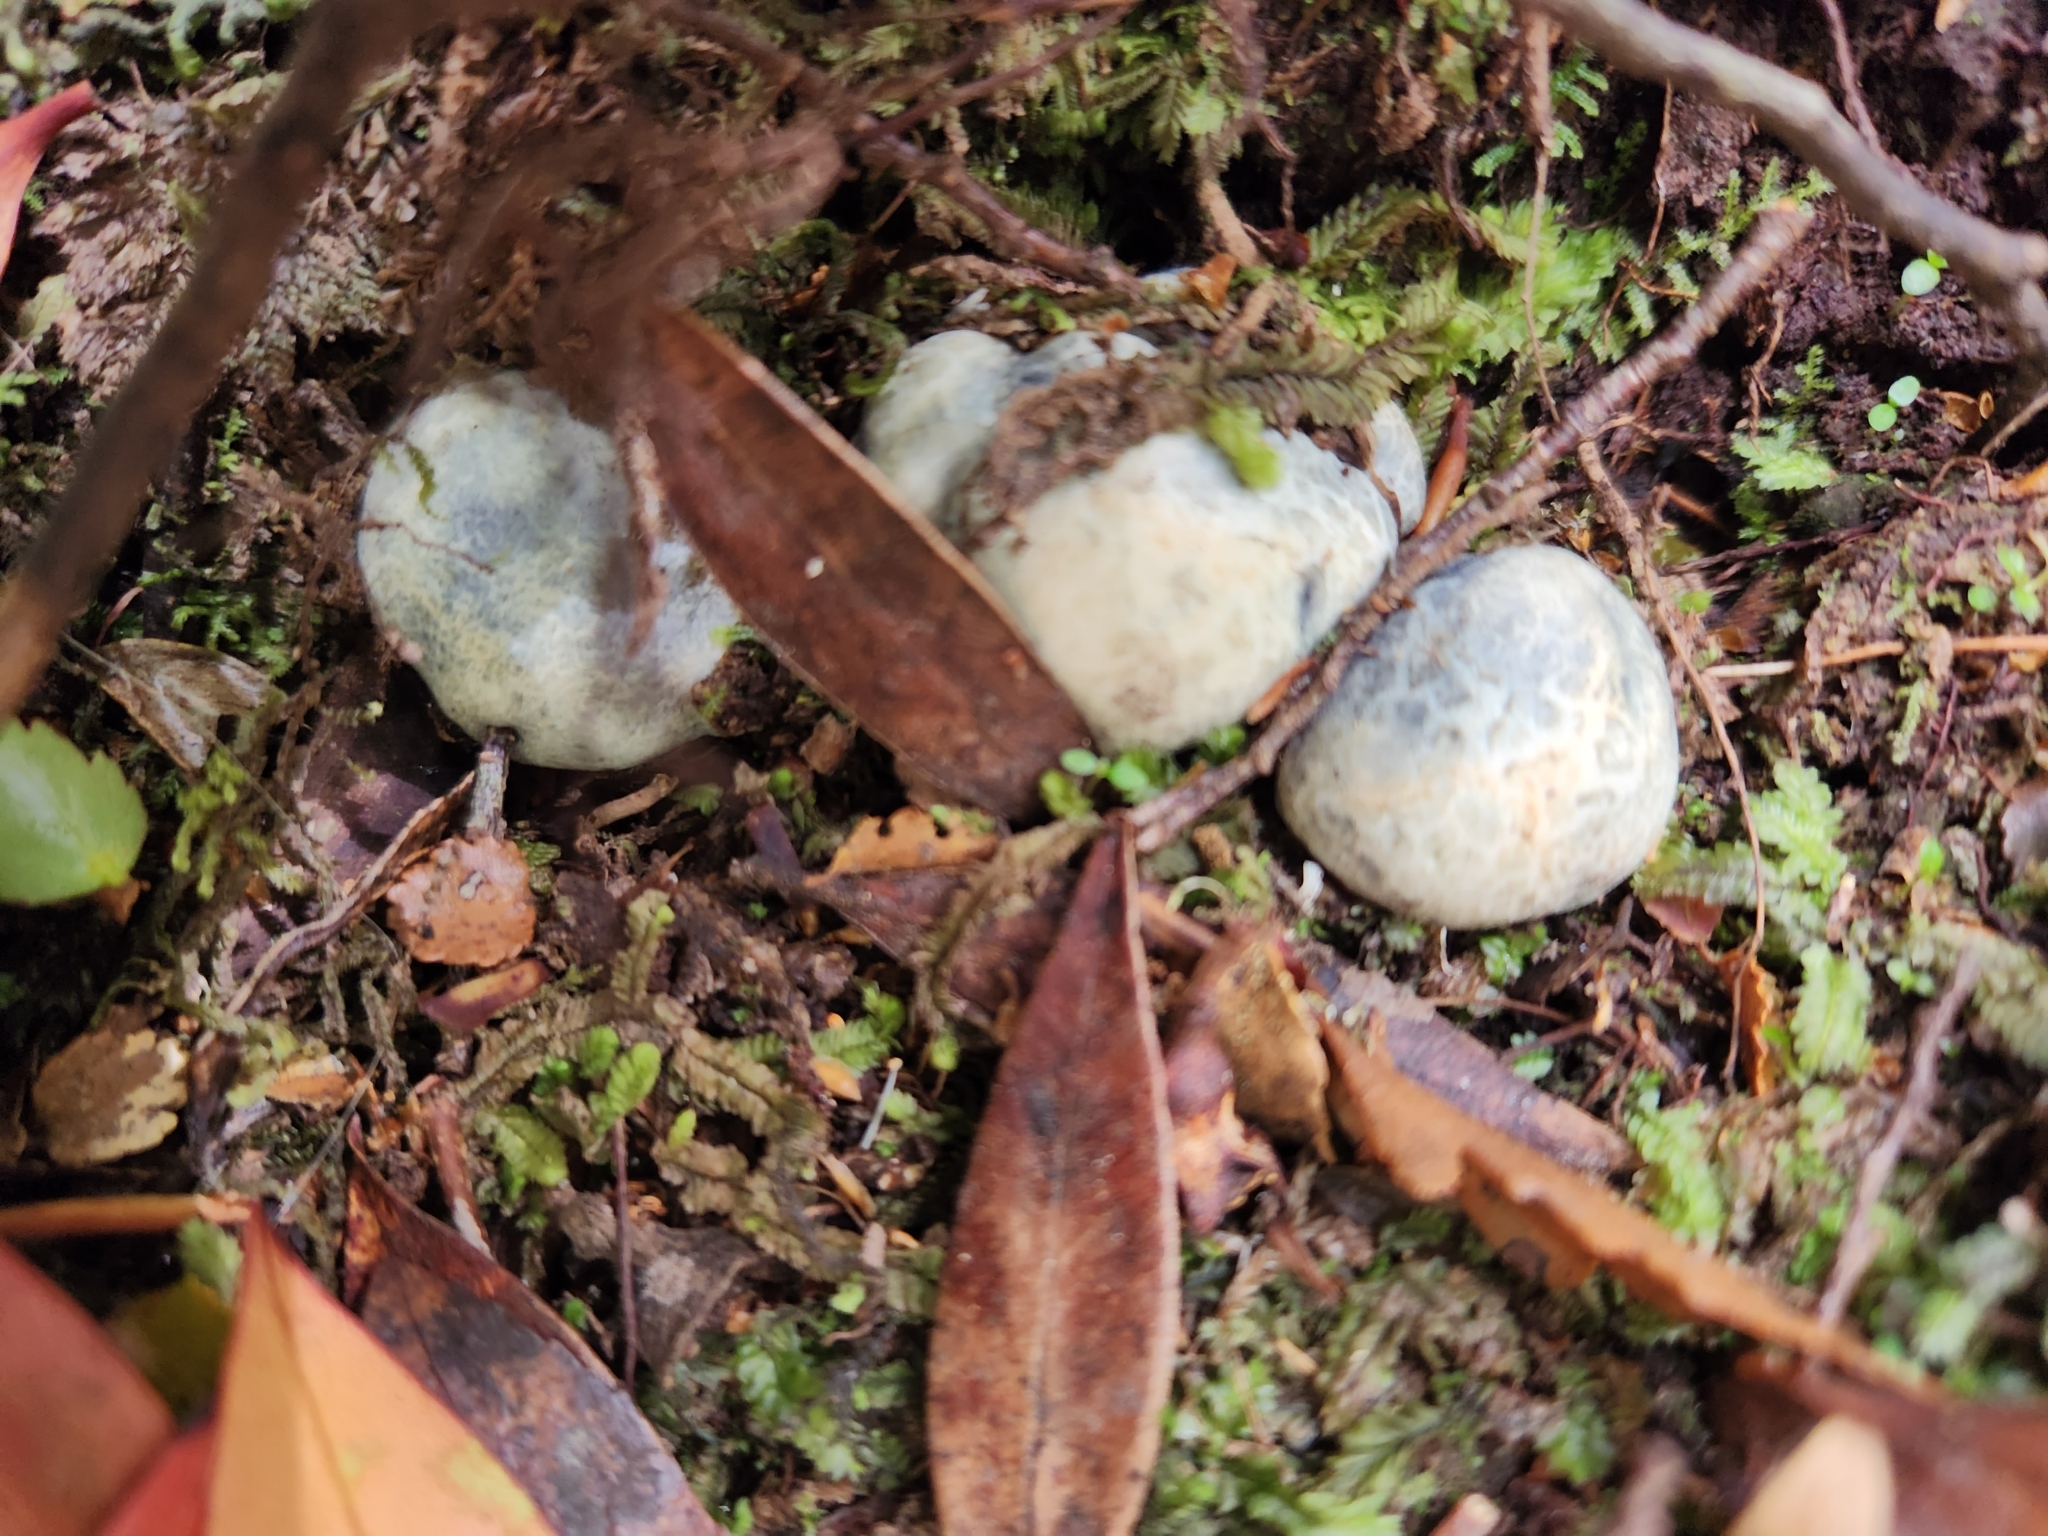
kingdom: Fungi
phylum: Basidiomycota
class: Agaricomycetes
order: Boletales
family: Boletaceae
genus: Leccinum
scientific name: Leccinum pachyderme
